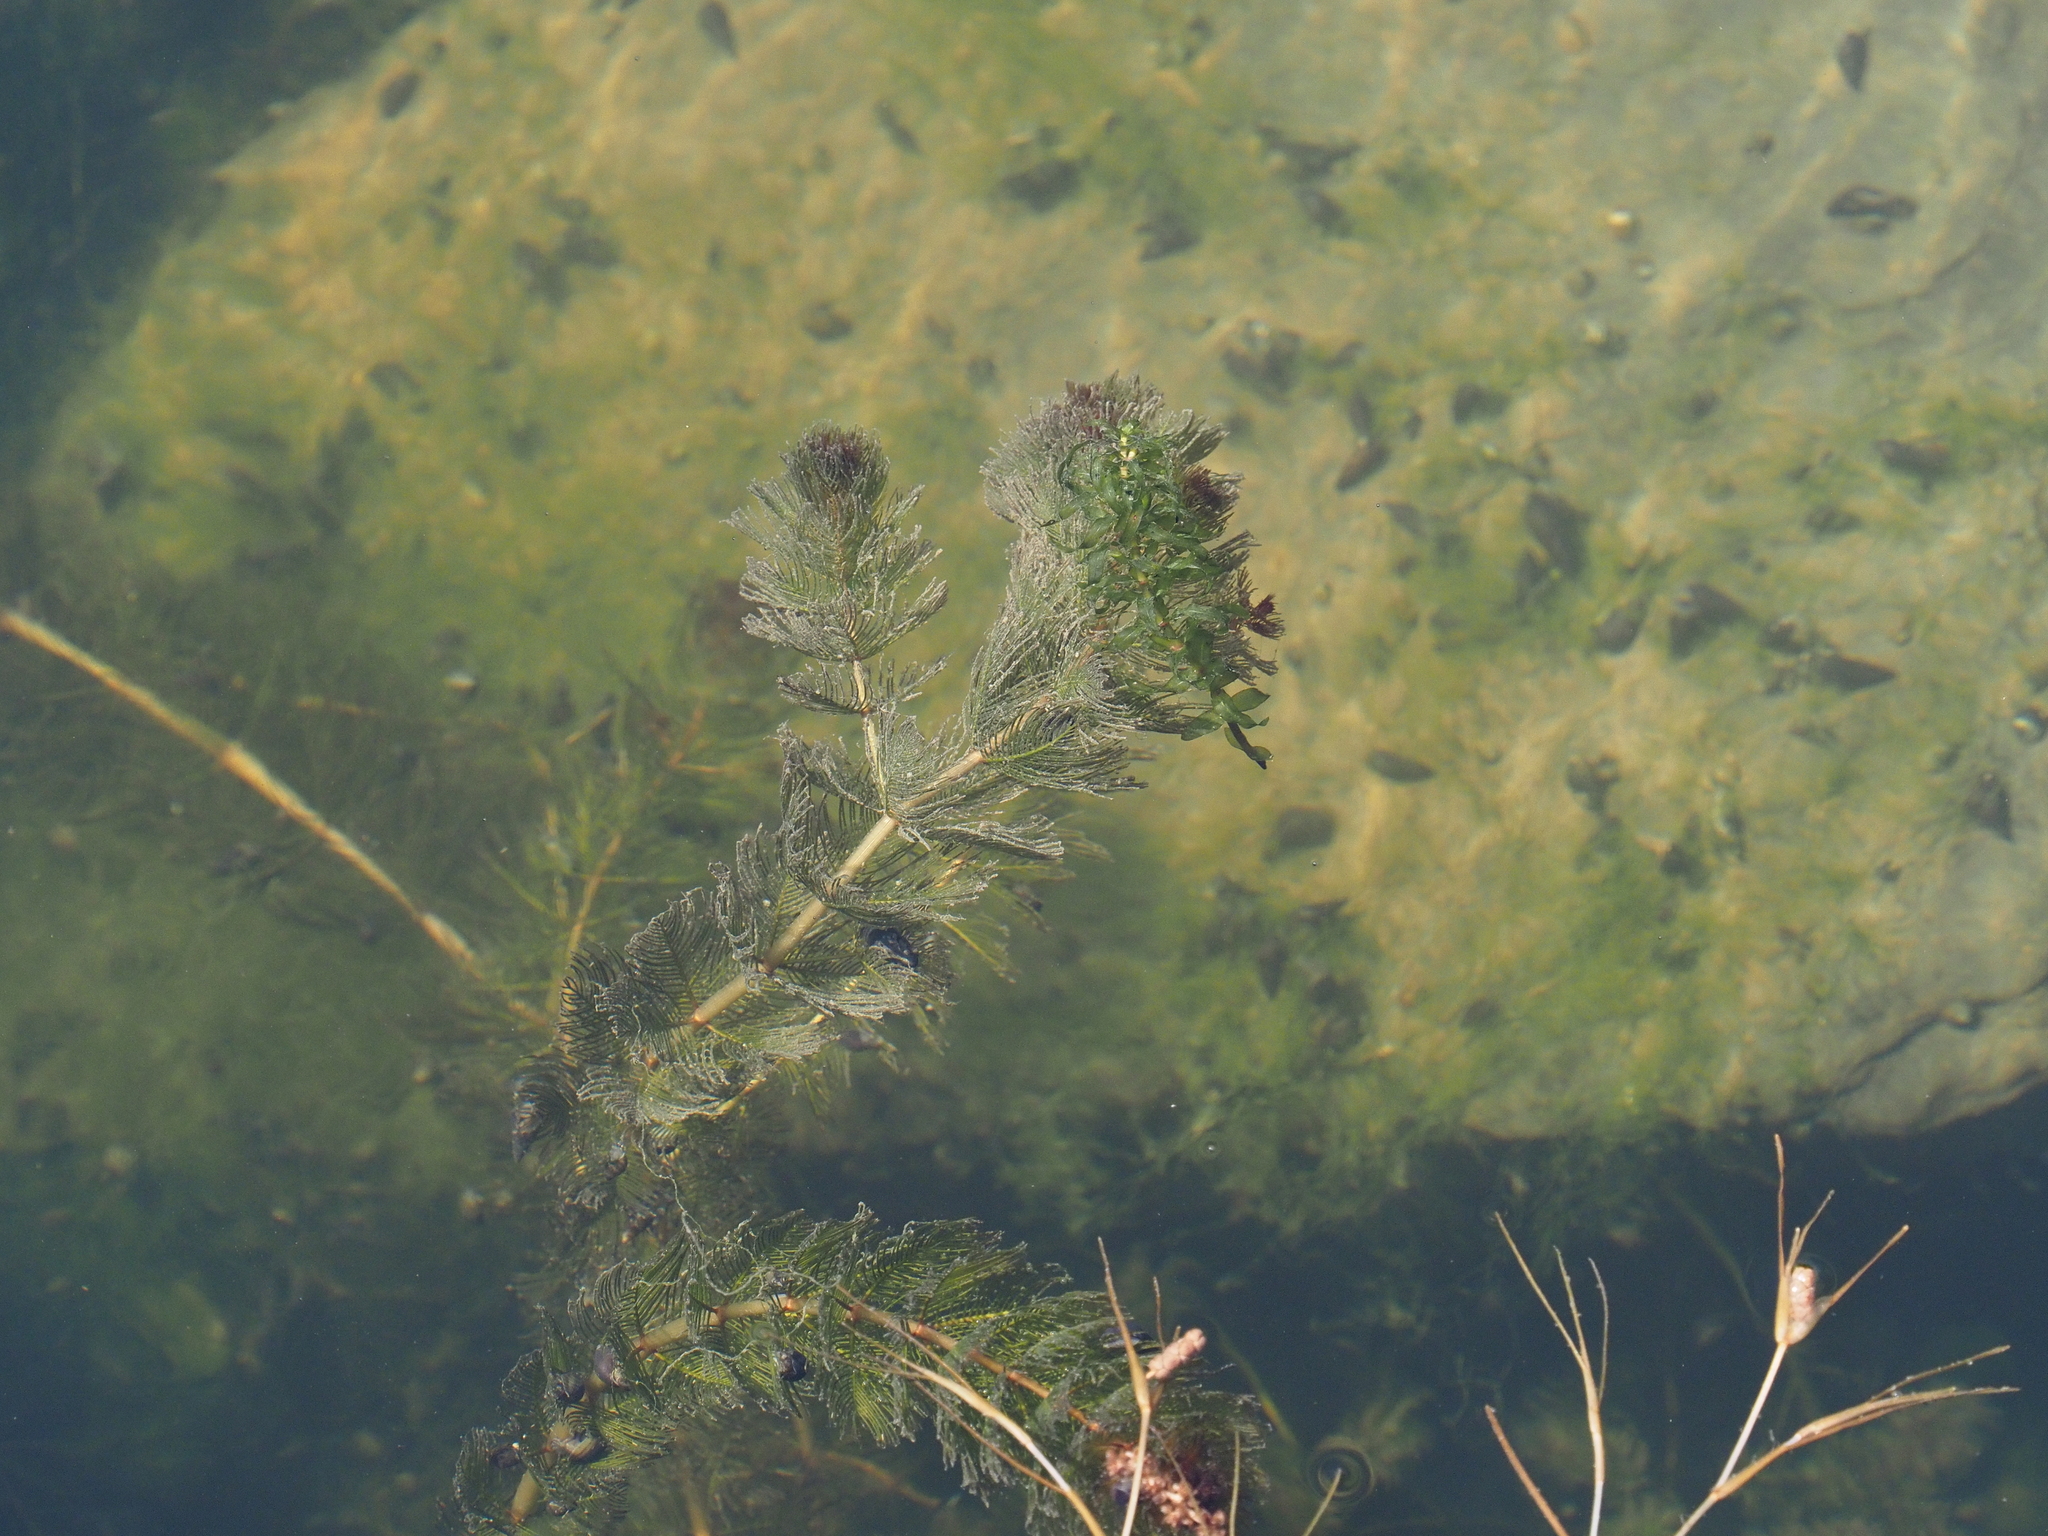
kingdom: Plantae
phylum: Tracheophyta
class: Magnoliopsida
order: Saxifragales
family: Haloragaceae
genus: Myriophyllum
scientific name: Myriophyllum spicatum
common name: Spiked water-milfoil
